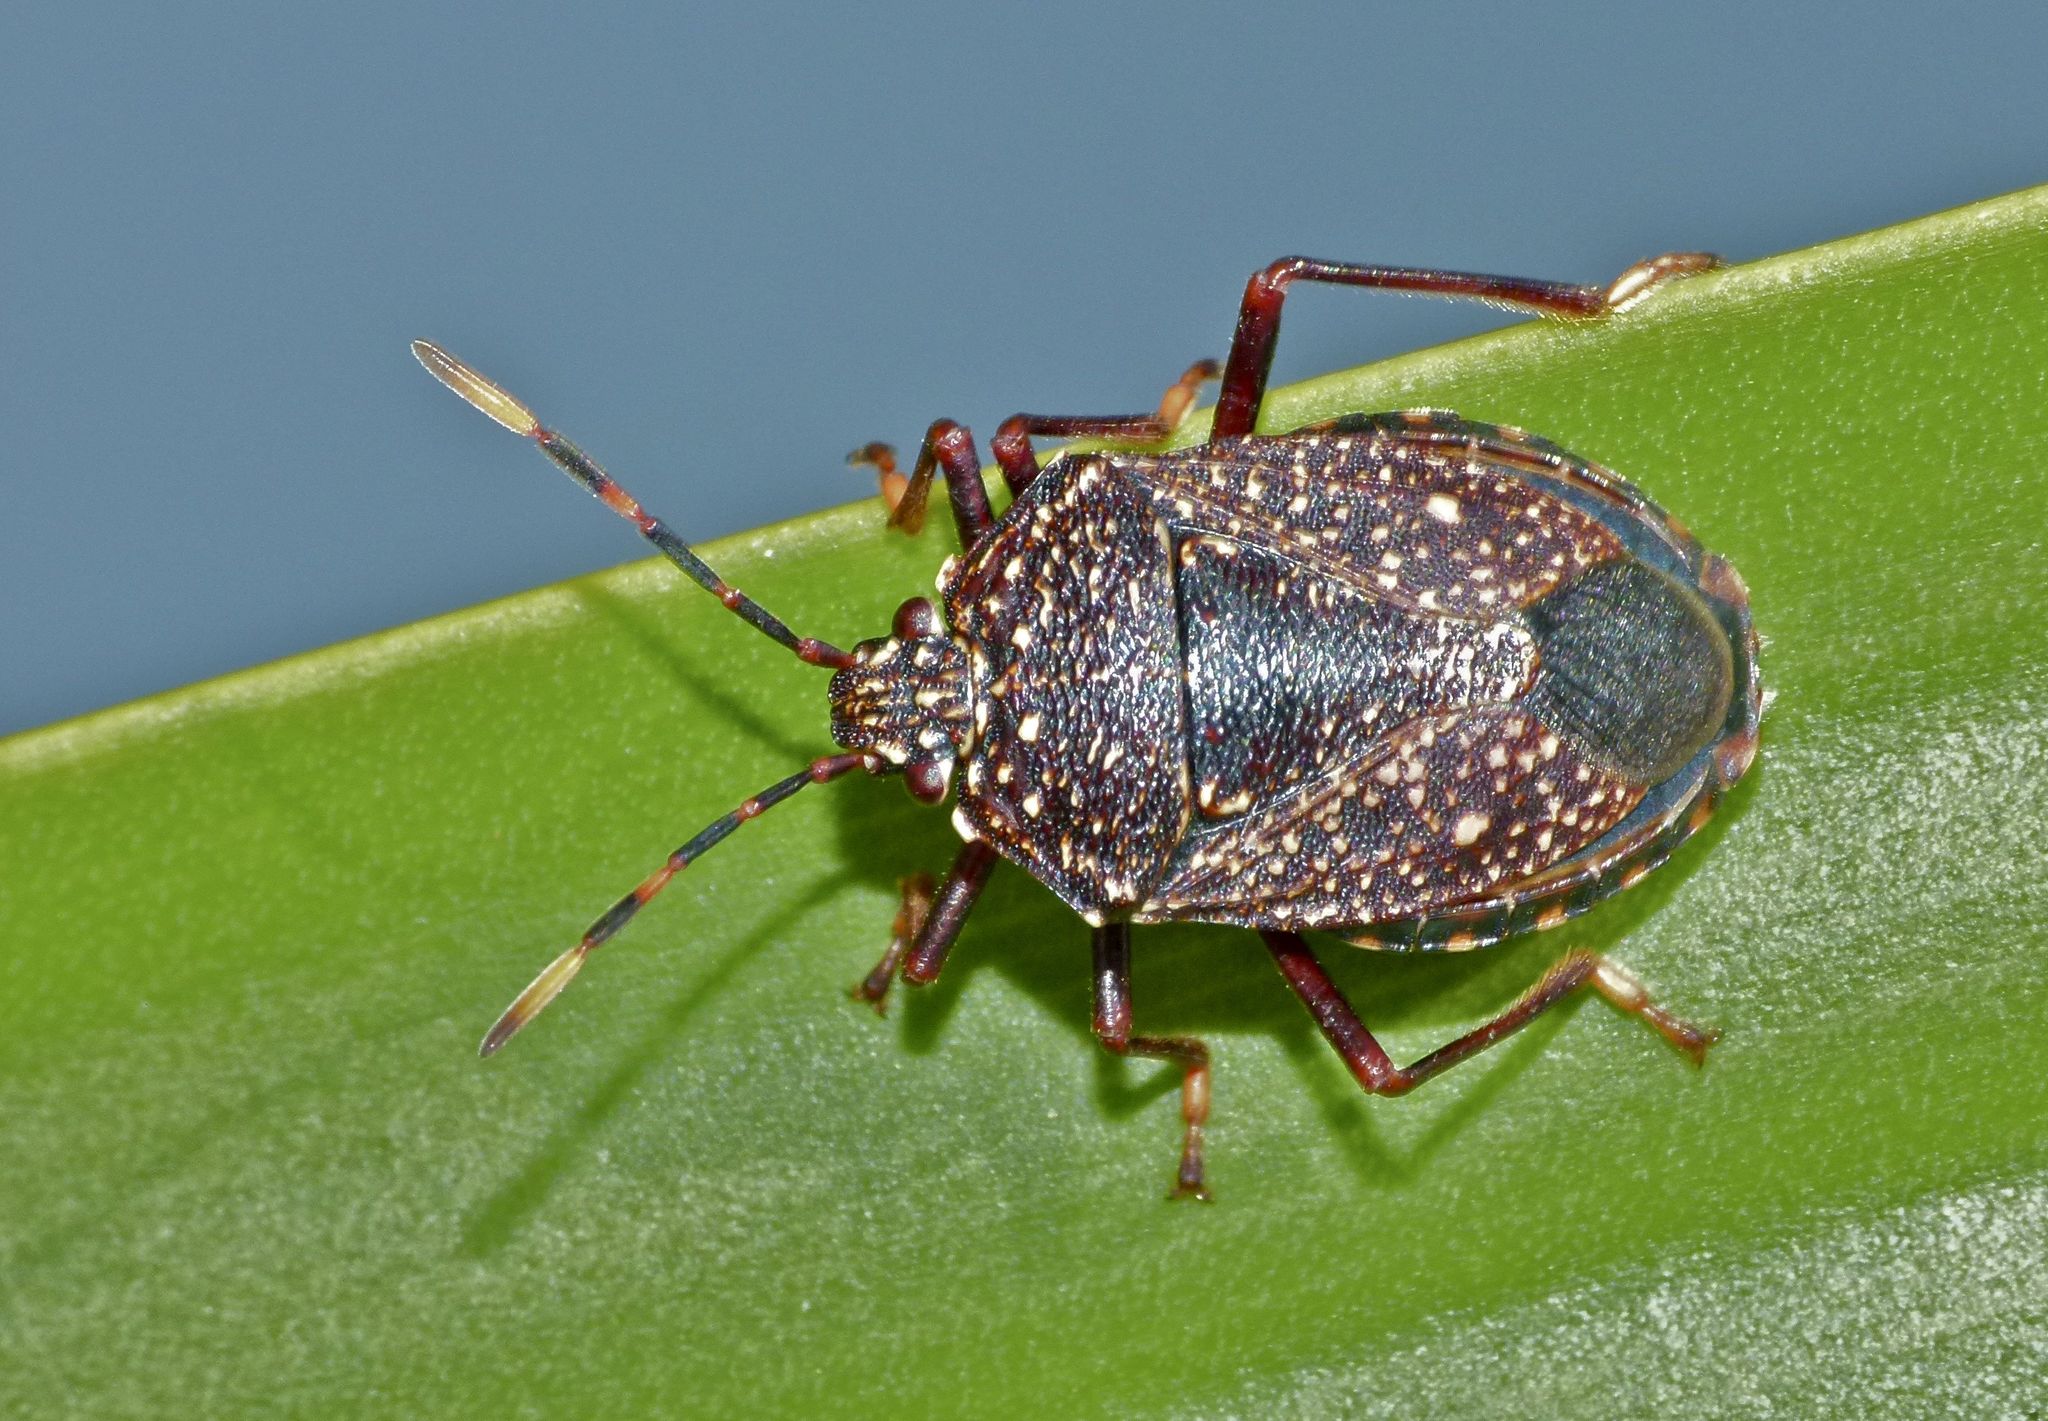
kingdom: Animalia
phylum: Arthropoda
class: Insecta
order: Hemiptera
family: Pentatomidae
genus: Notius
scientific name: Notius
